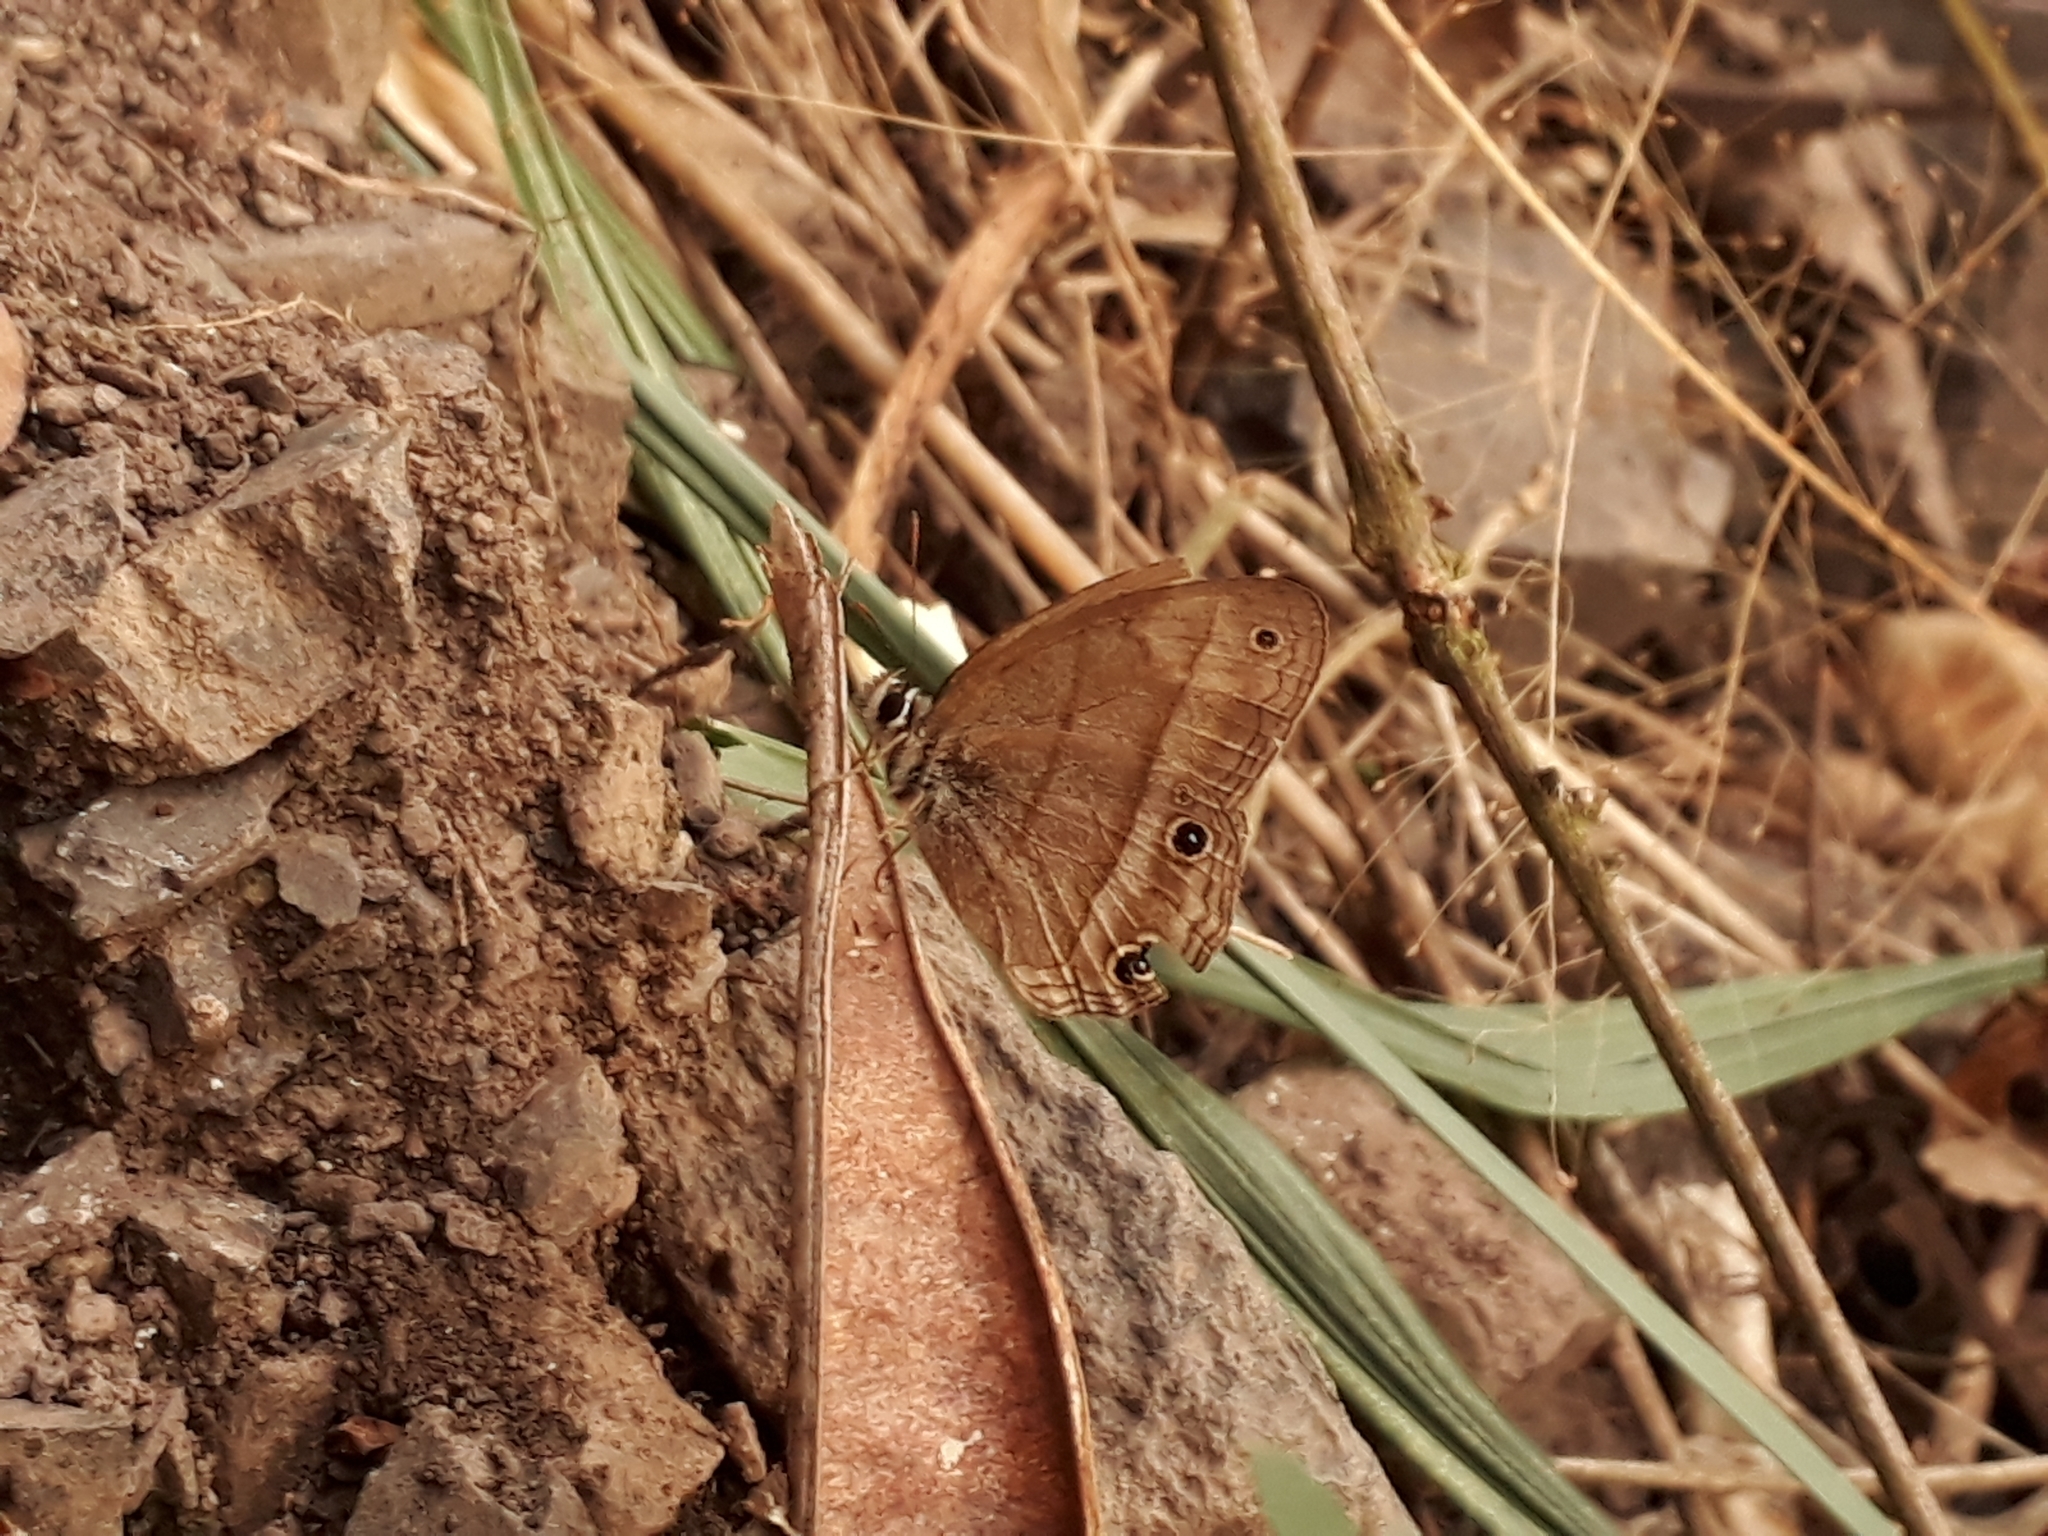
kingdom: Animalia
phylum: Arthropoda
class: Insecta
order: Lepidoptera
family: Nymphalidae
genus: Euptychia
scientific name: Euptychia Cissia pompilia
